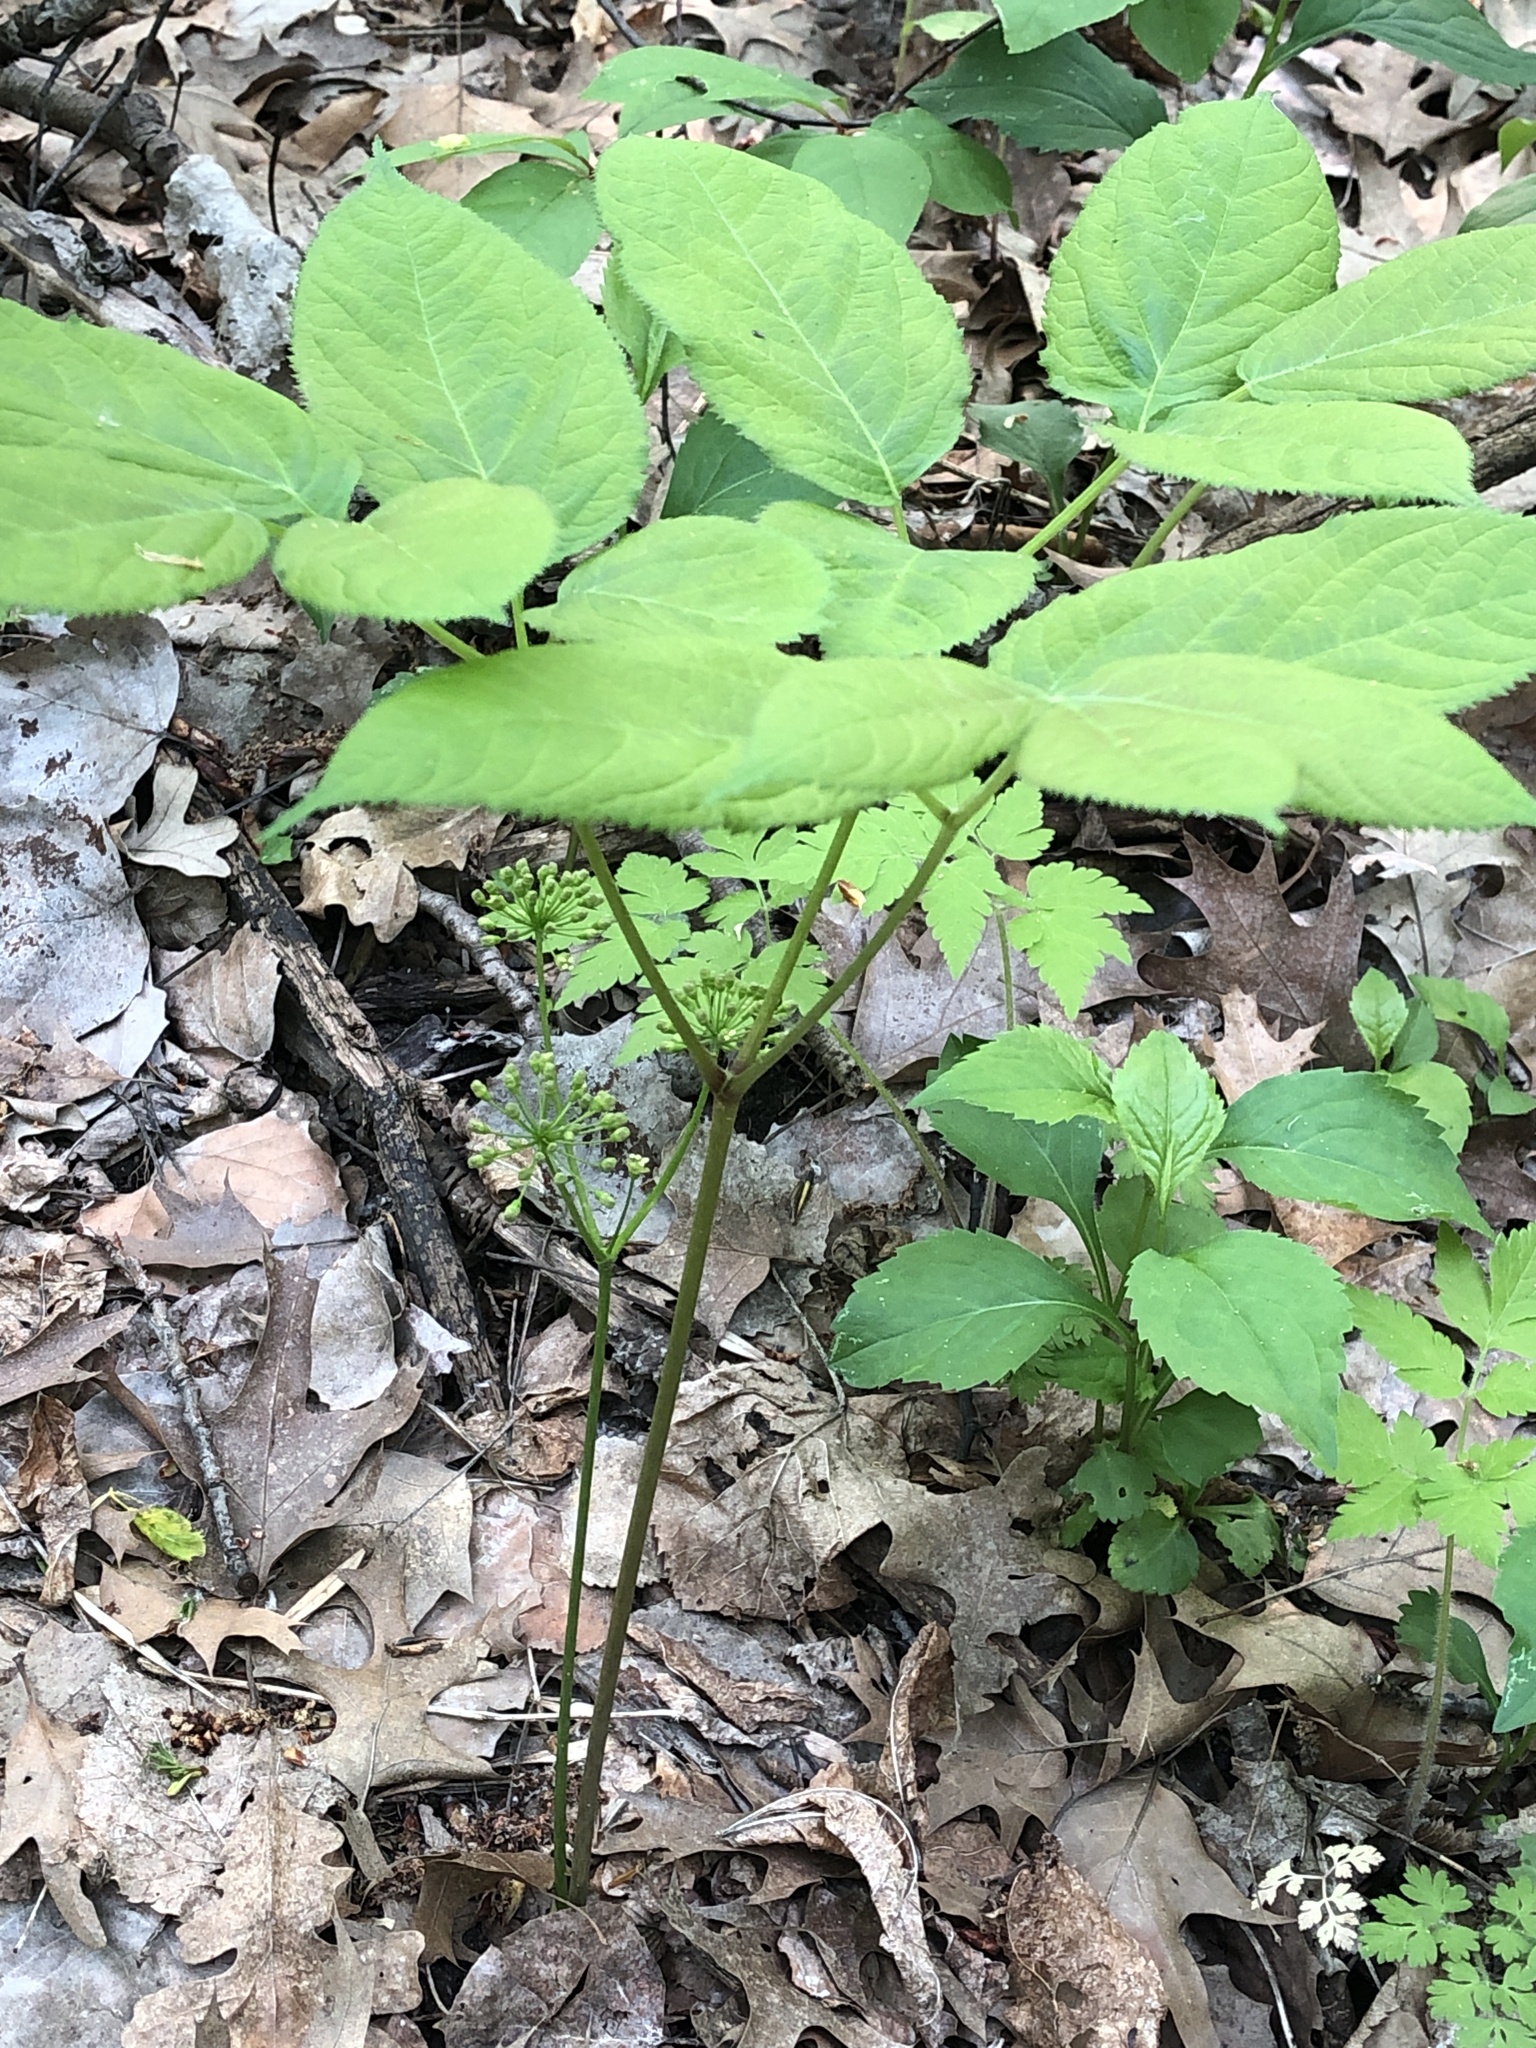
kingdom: Plantae
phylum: Tracheophyta
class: Magnoliopsida
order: Apiales
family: Araliaceae
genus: Aralia
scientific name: Aralia nudicaulis
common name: Wild sarsaparilla
